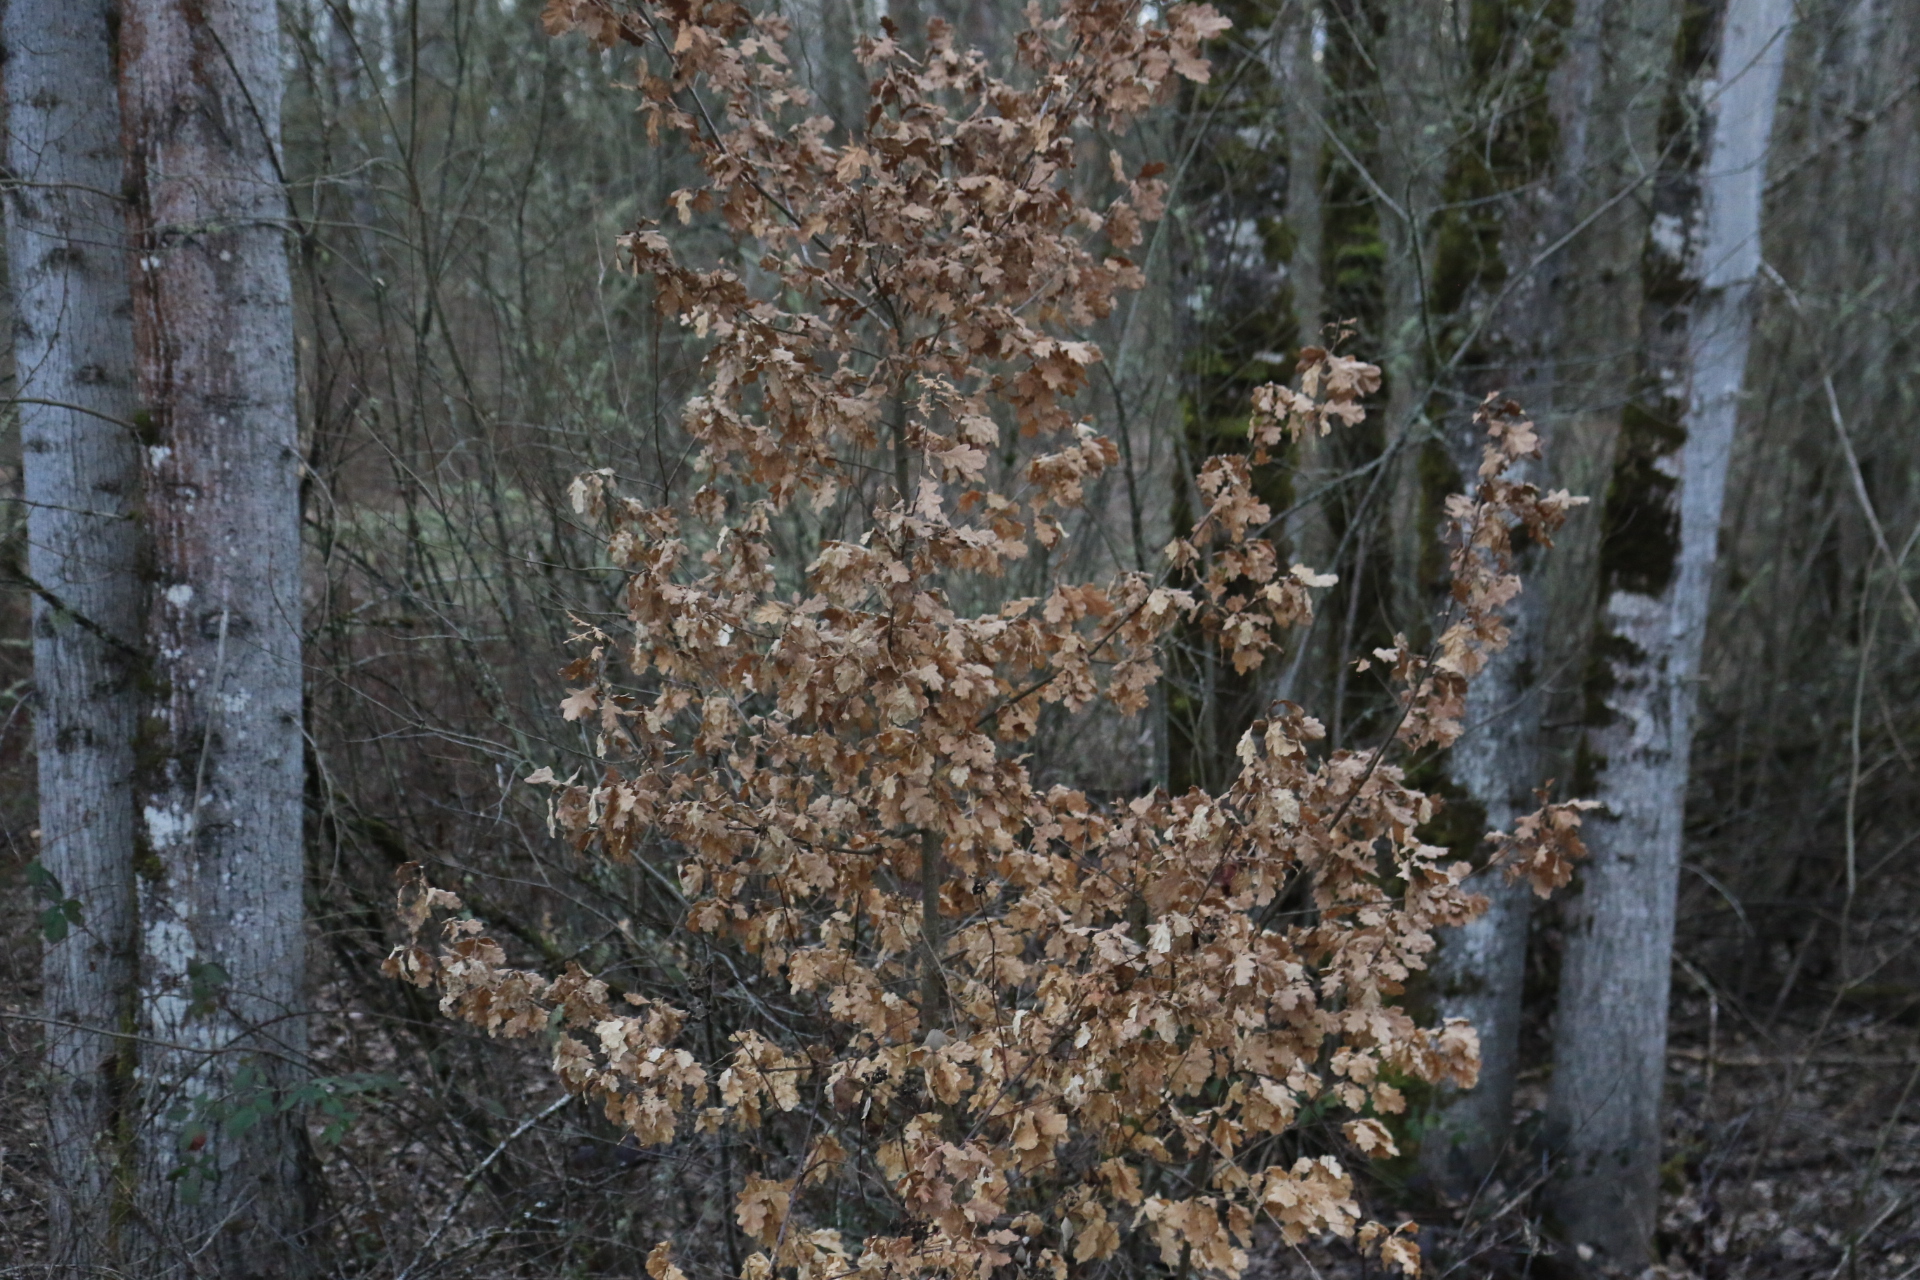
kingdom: Plantae
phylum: Tracheophyta
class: Magnoliopsida
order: Fagales
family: Fagaceae
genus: Quercus
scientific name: Quercus robur
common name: Pedunculate oak
